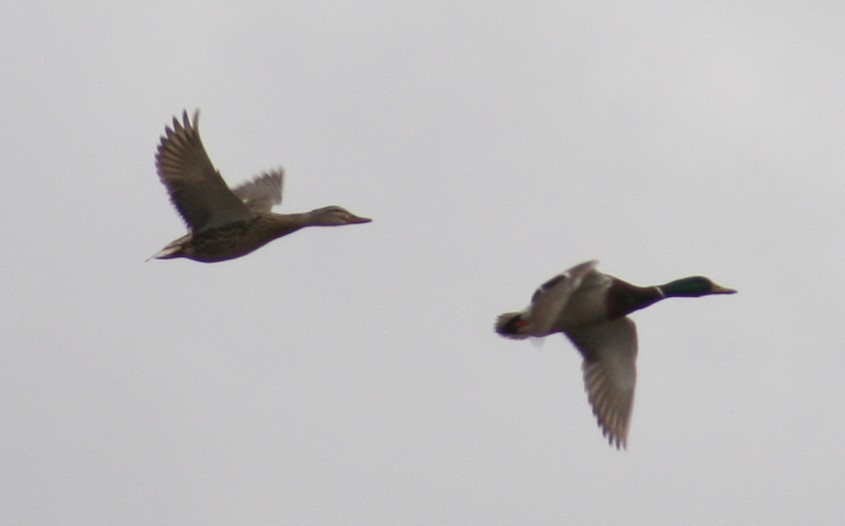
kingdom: Animalia
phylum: Chordata
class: Aves
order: Anseriformes
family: Anatidae
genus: Anas
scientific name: Anas platyrhynchos
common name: Mallard
